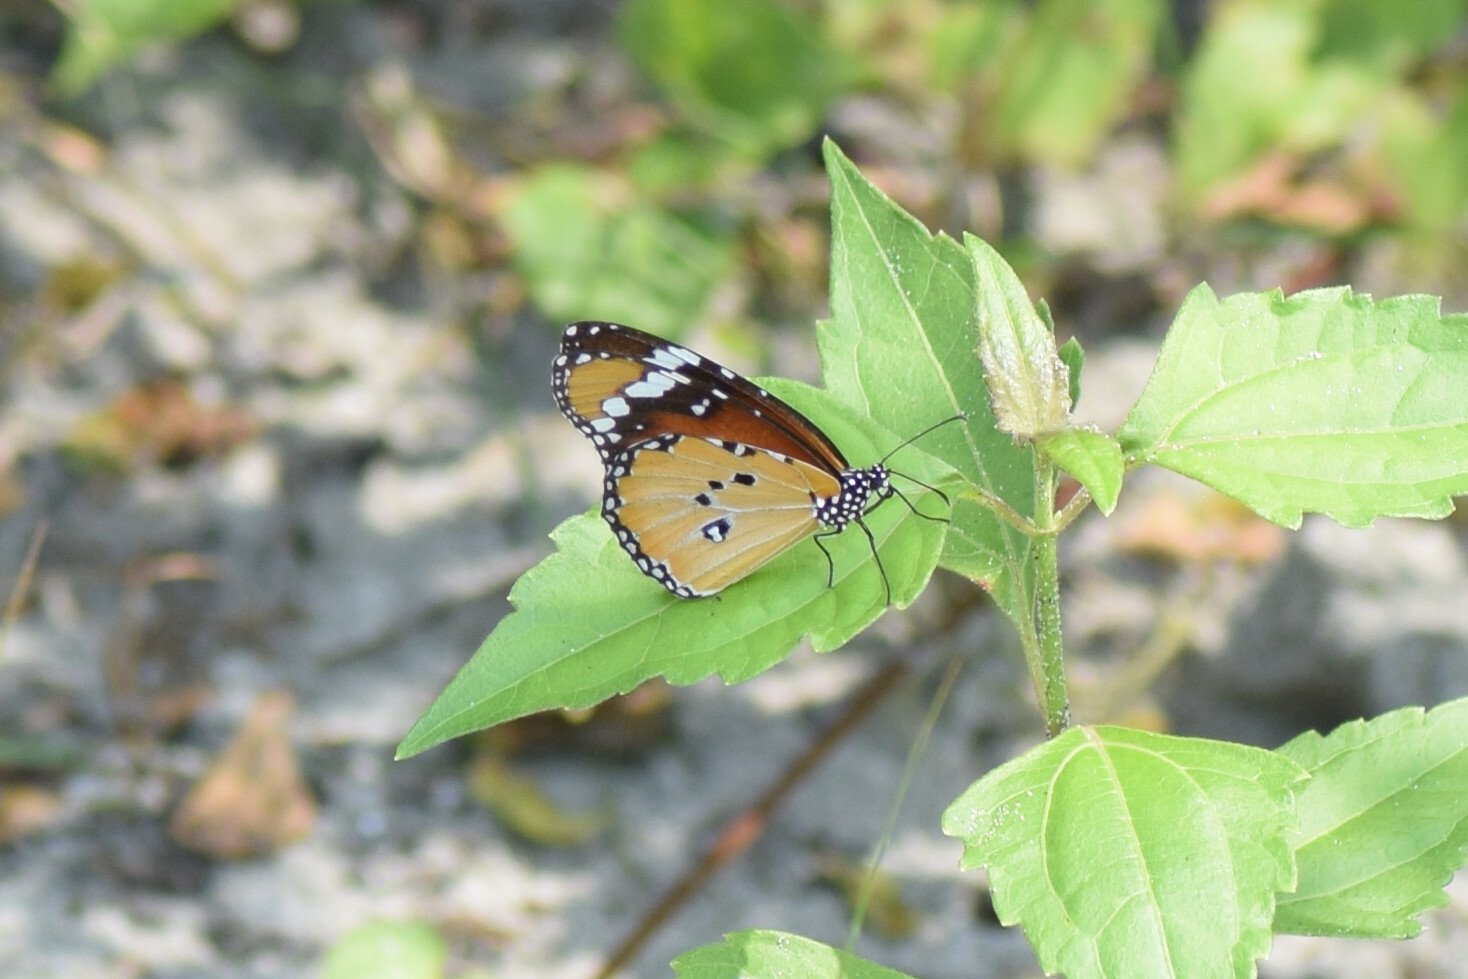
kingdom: Animalia
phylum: Arthropoda
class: Insecta
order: Lepidoptera
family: Nymphalidae
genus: Danaus
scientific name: Danaus chrysippus
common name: Plain tiger
